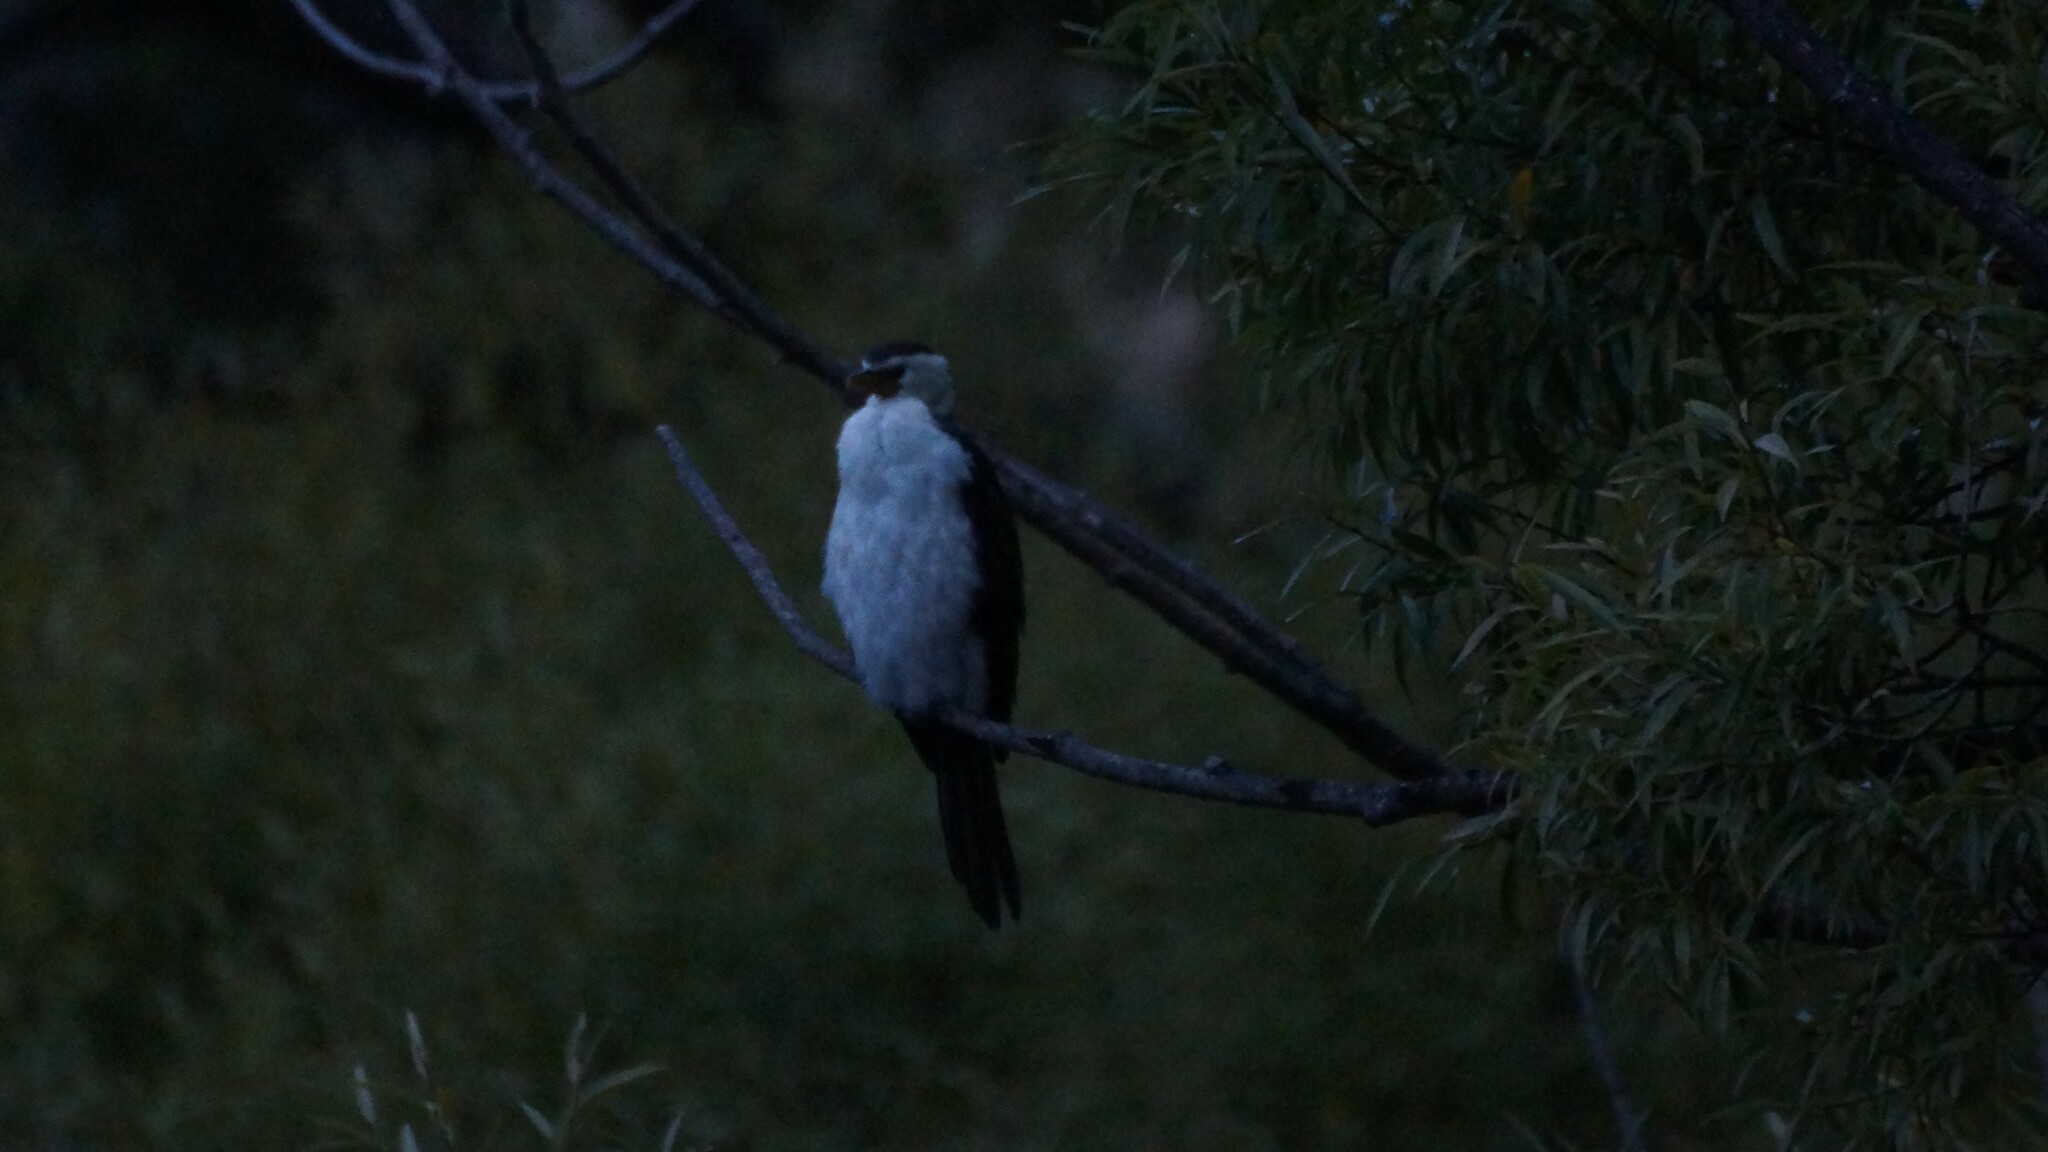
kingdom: Animalia
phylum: Chordata
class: Aves
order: Suliformes
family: Phalacrocoracidae
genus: Microcarbo
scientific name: Microcarbo melanoleucos
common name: Little pied cormorant
